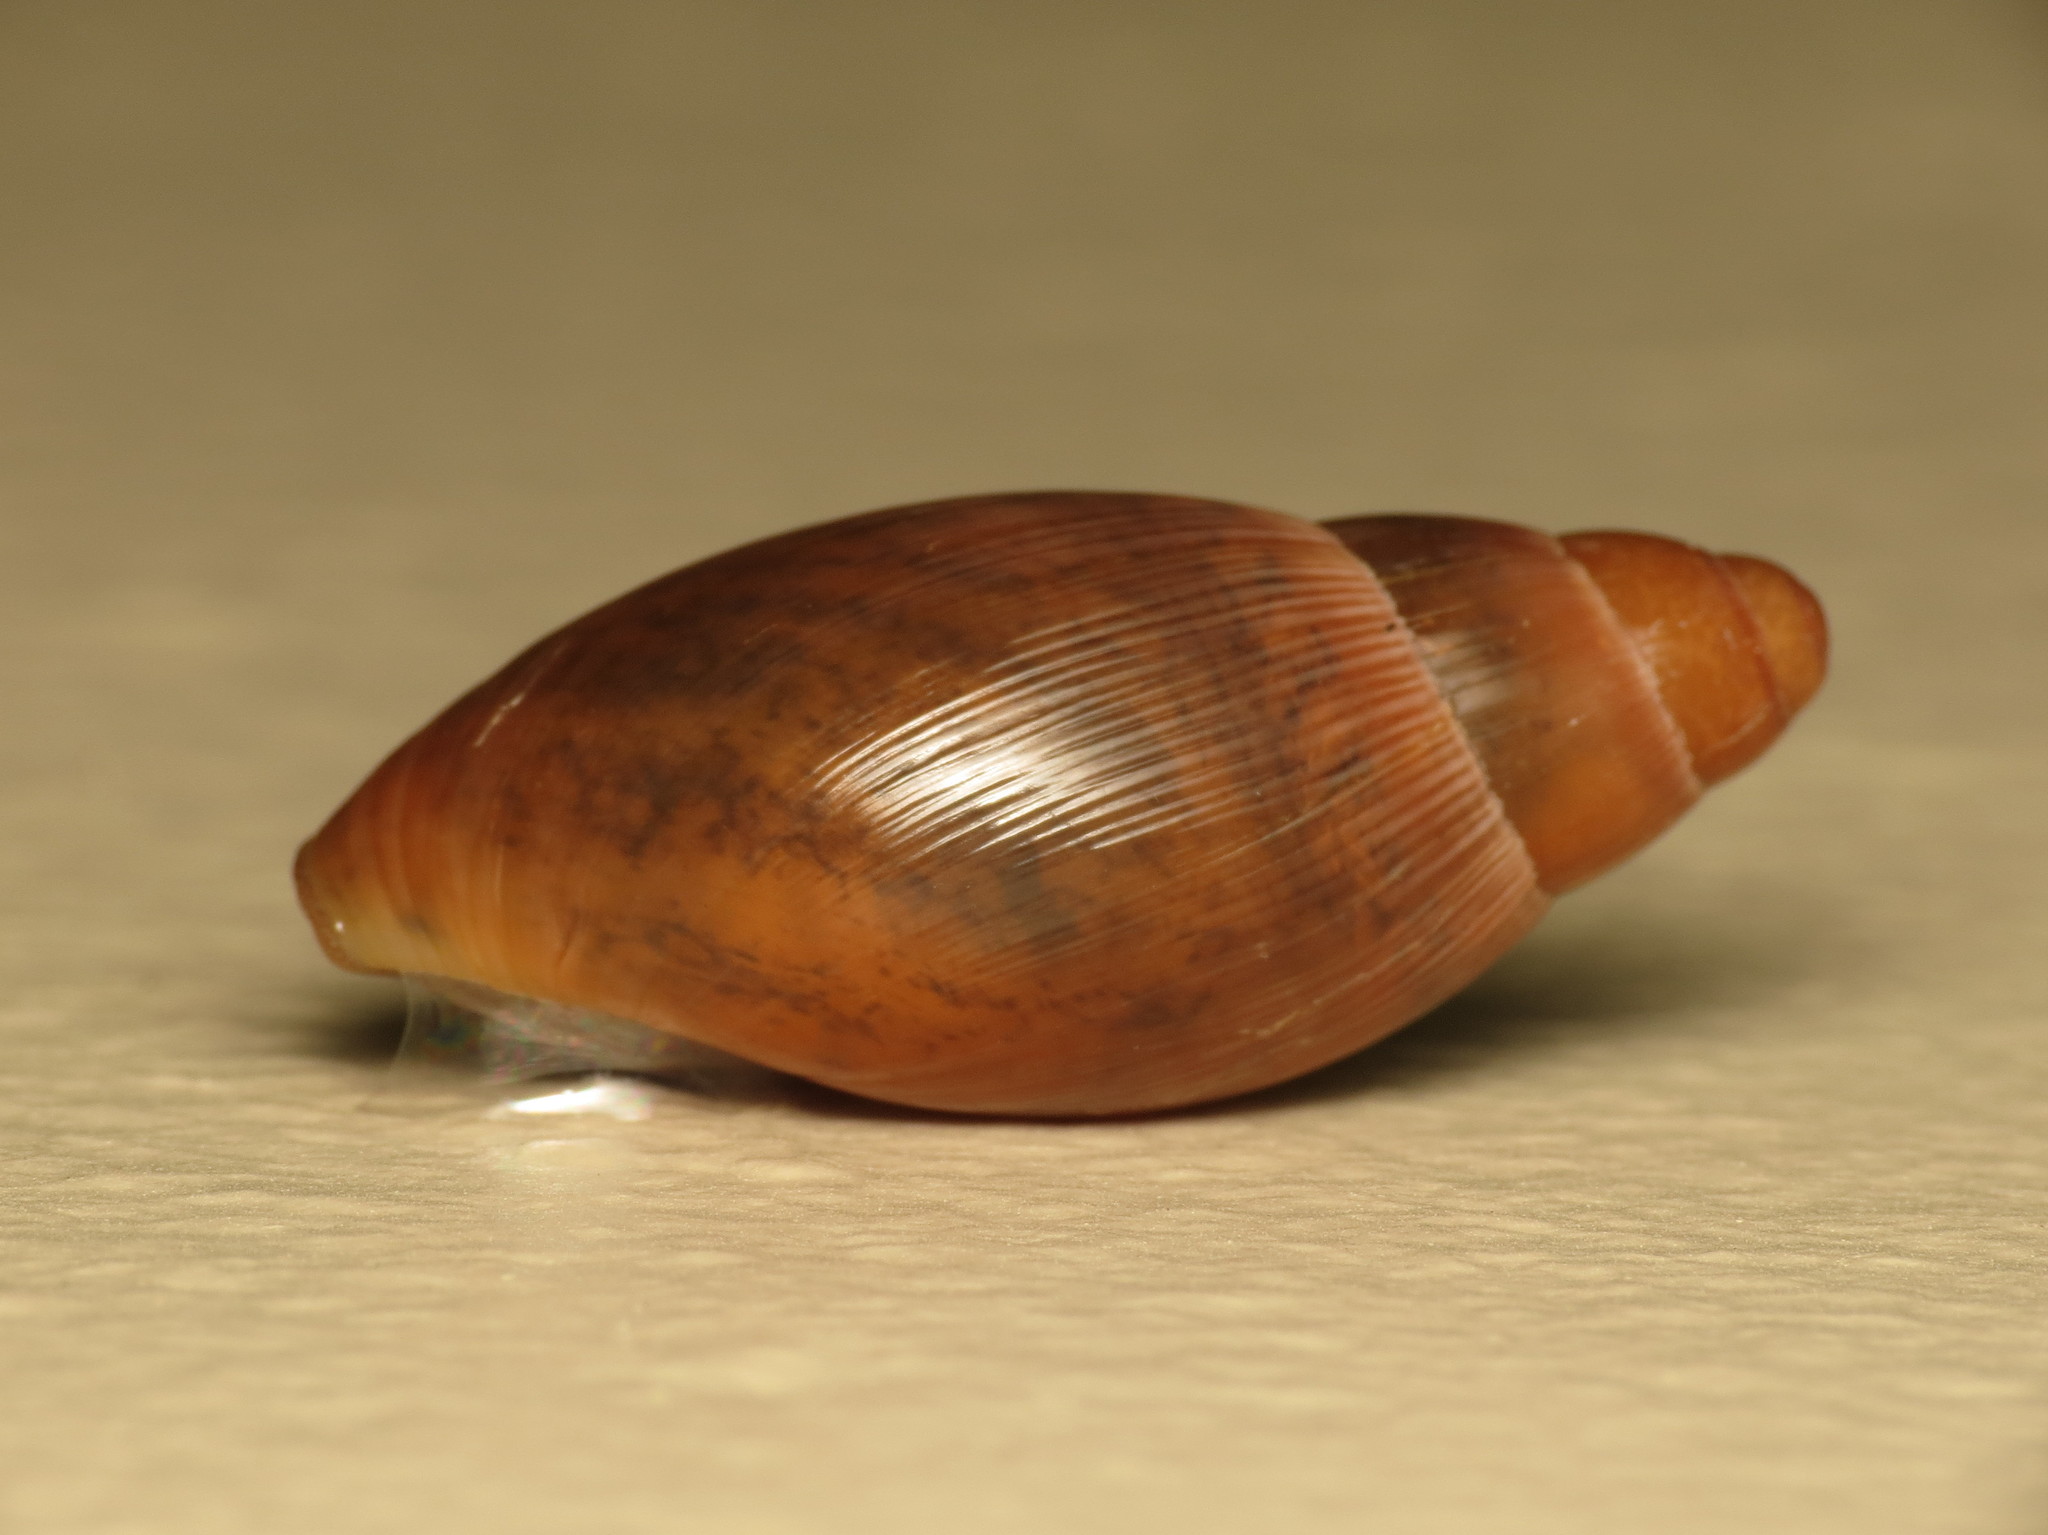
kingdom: Animalia
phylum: Mollusca
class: Gastropoda
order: Stylommatophora
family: Spiraxidae
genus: Euglandina
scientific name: Euglandina rosea
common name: Rosy wolfsnail
